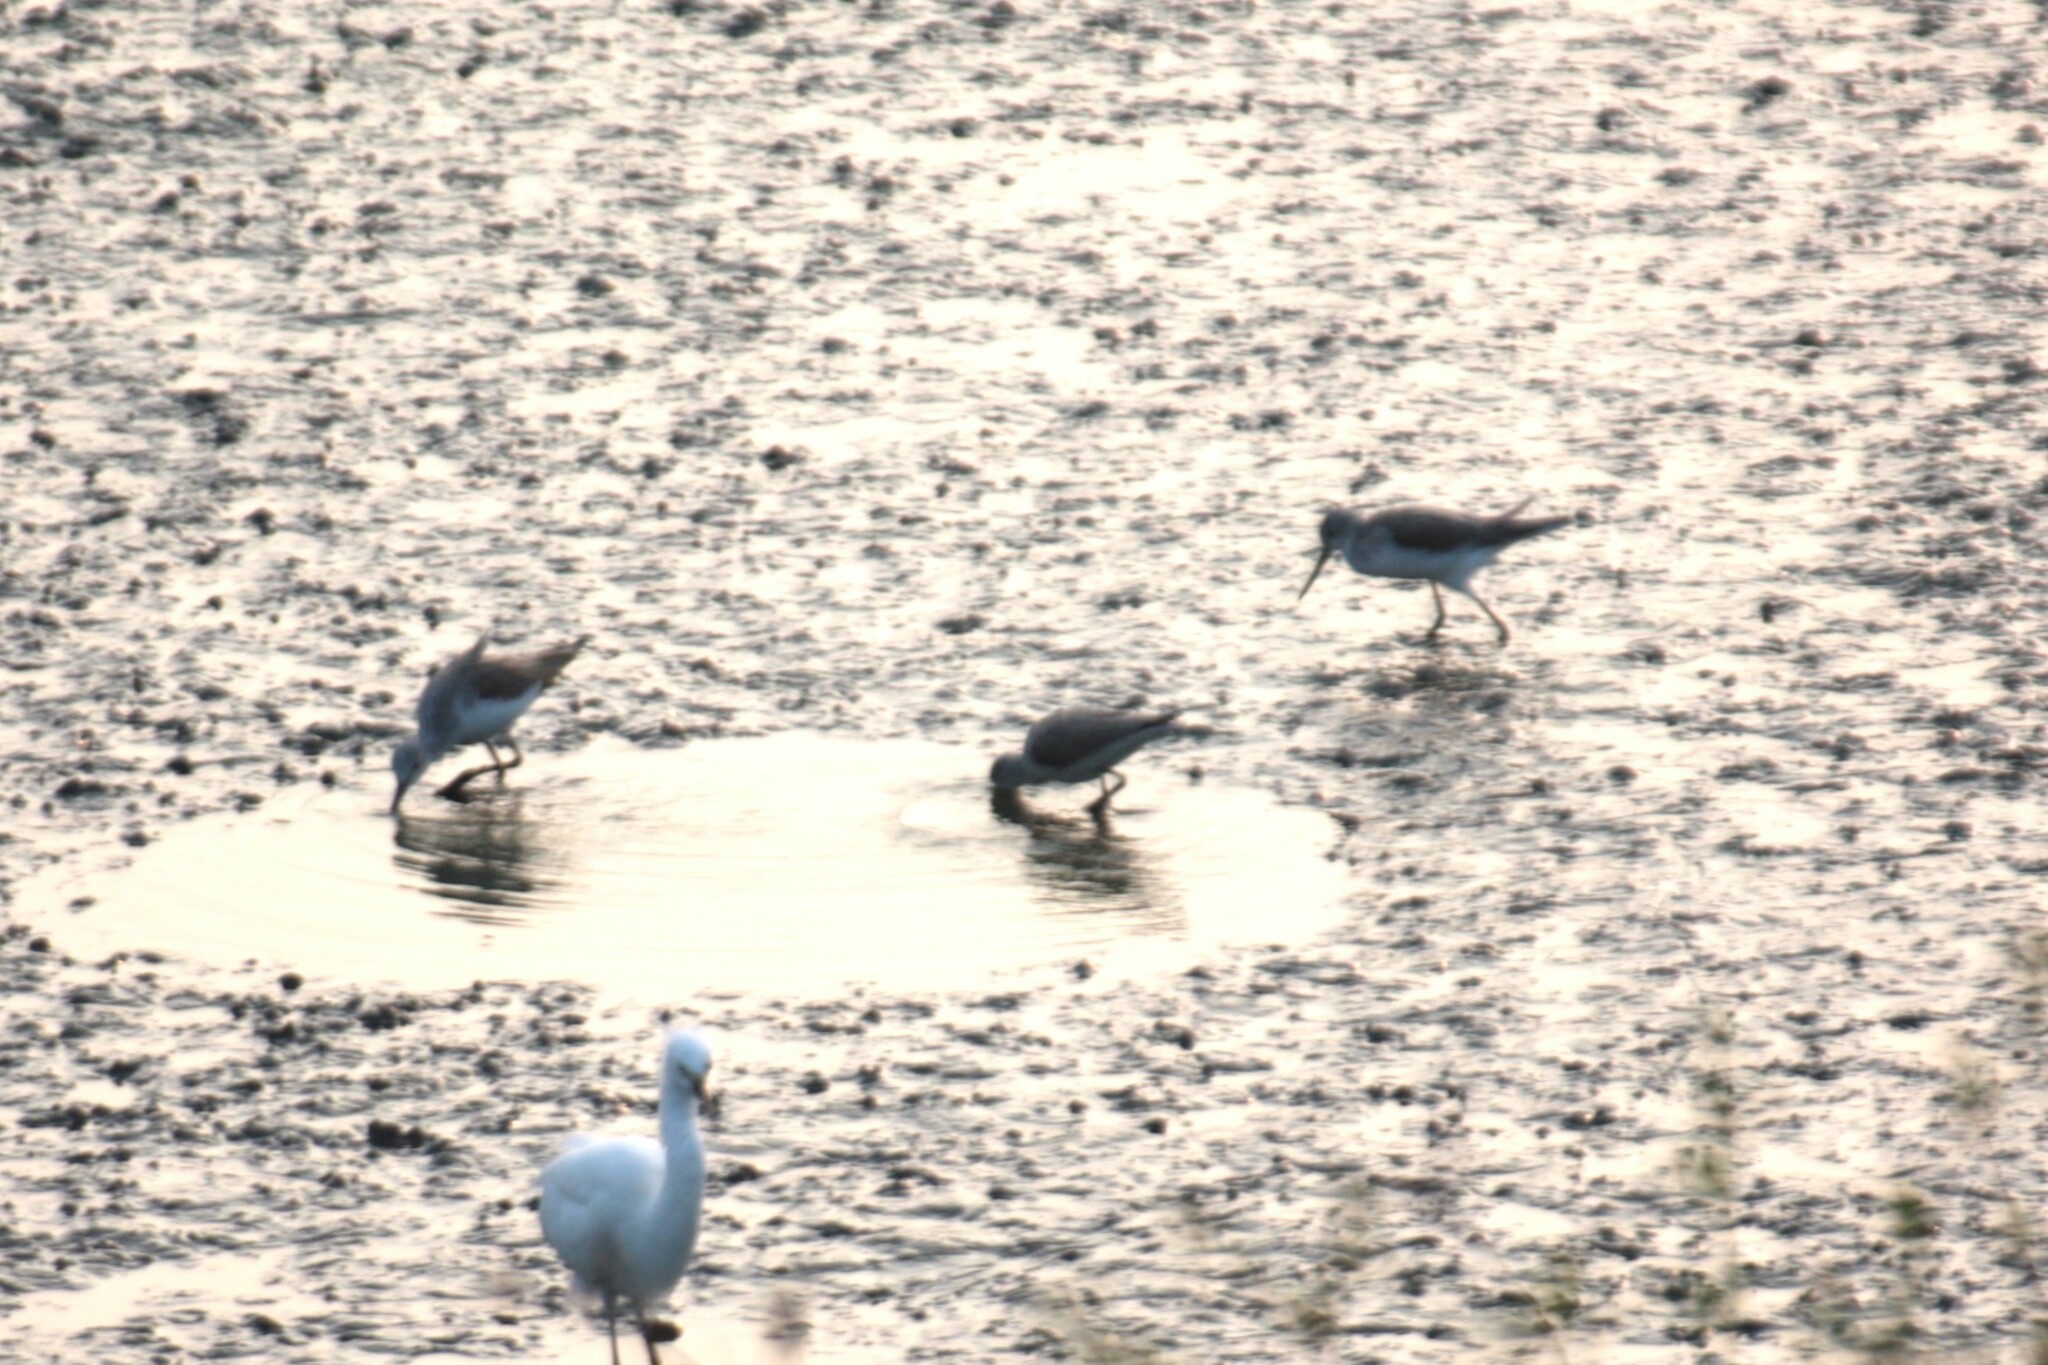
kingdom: Animalia
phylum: Chordata
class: Aves
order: Charadriiformes
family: Scolopacidae
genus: Tringa
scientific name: Tringa nebularia
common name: Common greenshank
